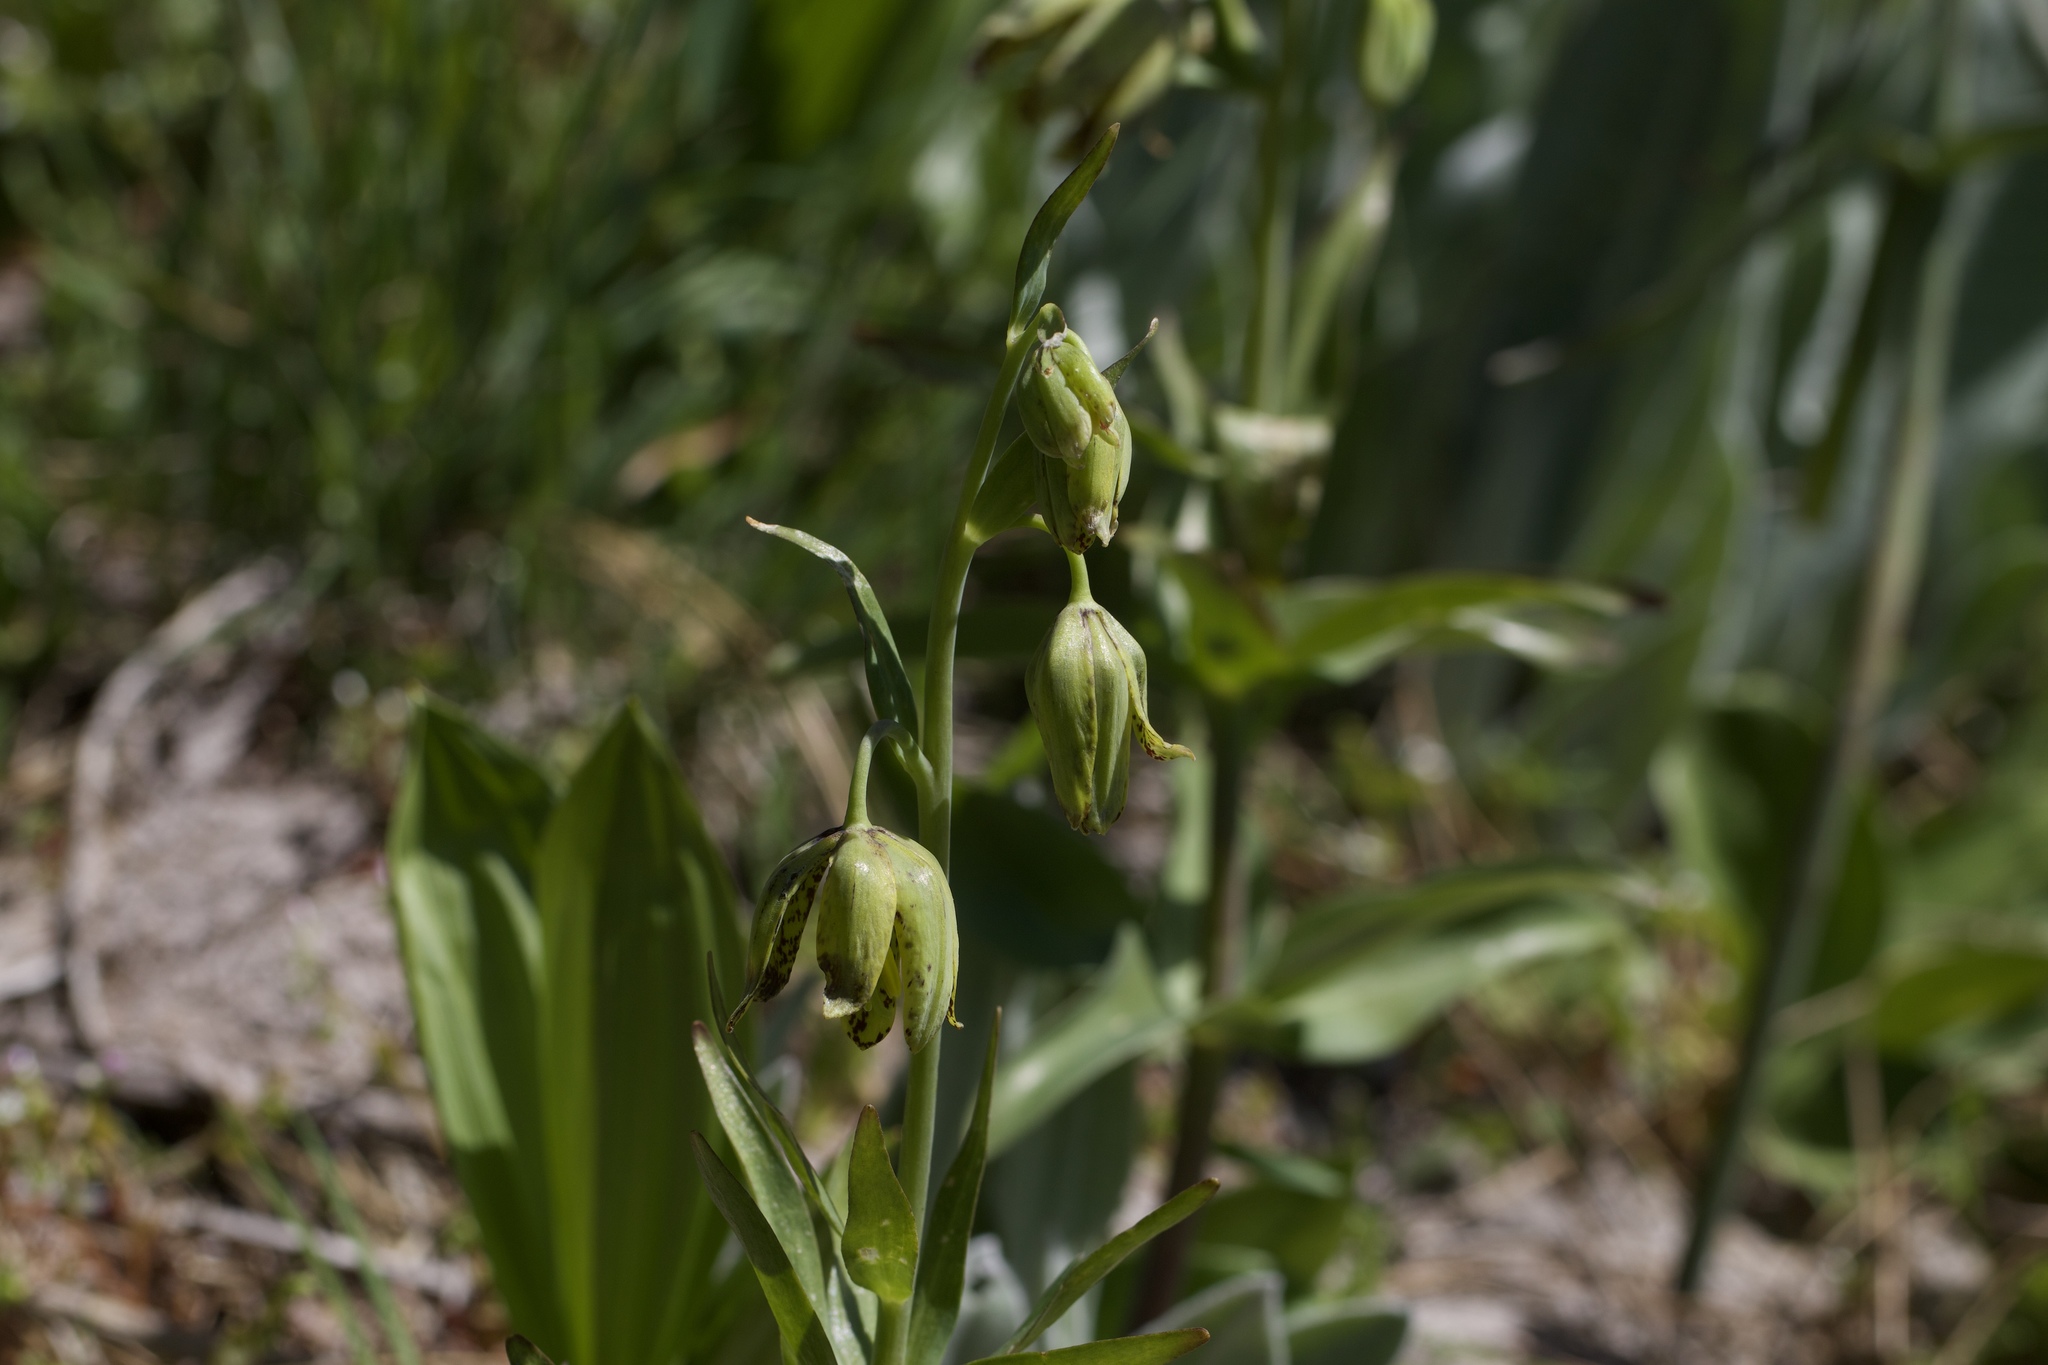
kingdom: Plantae
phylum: Tracheophyta
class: Liliopsida
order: Liliales
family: Liliaceae
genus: Fritillaria
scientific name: Fritillaria affinis
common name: Ojai fritillary
